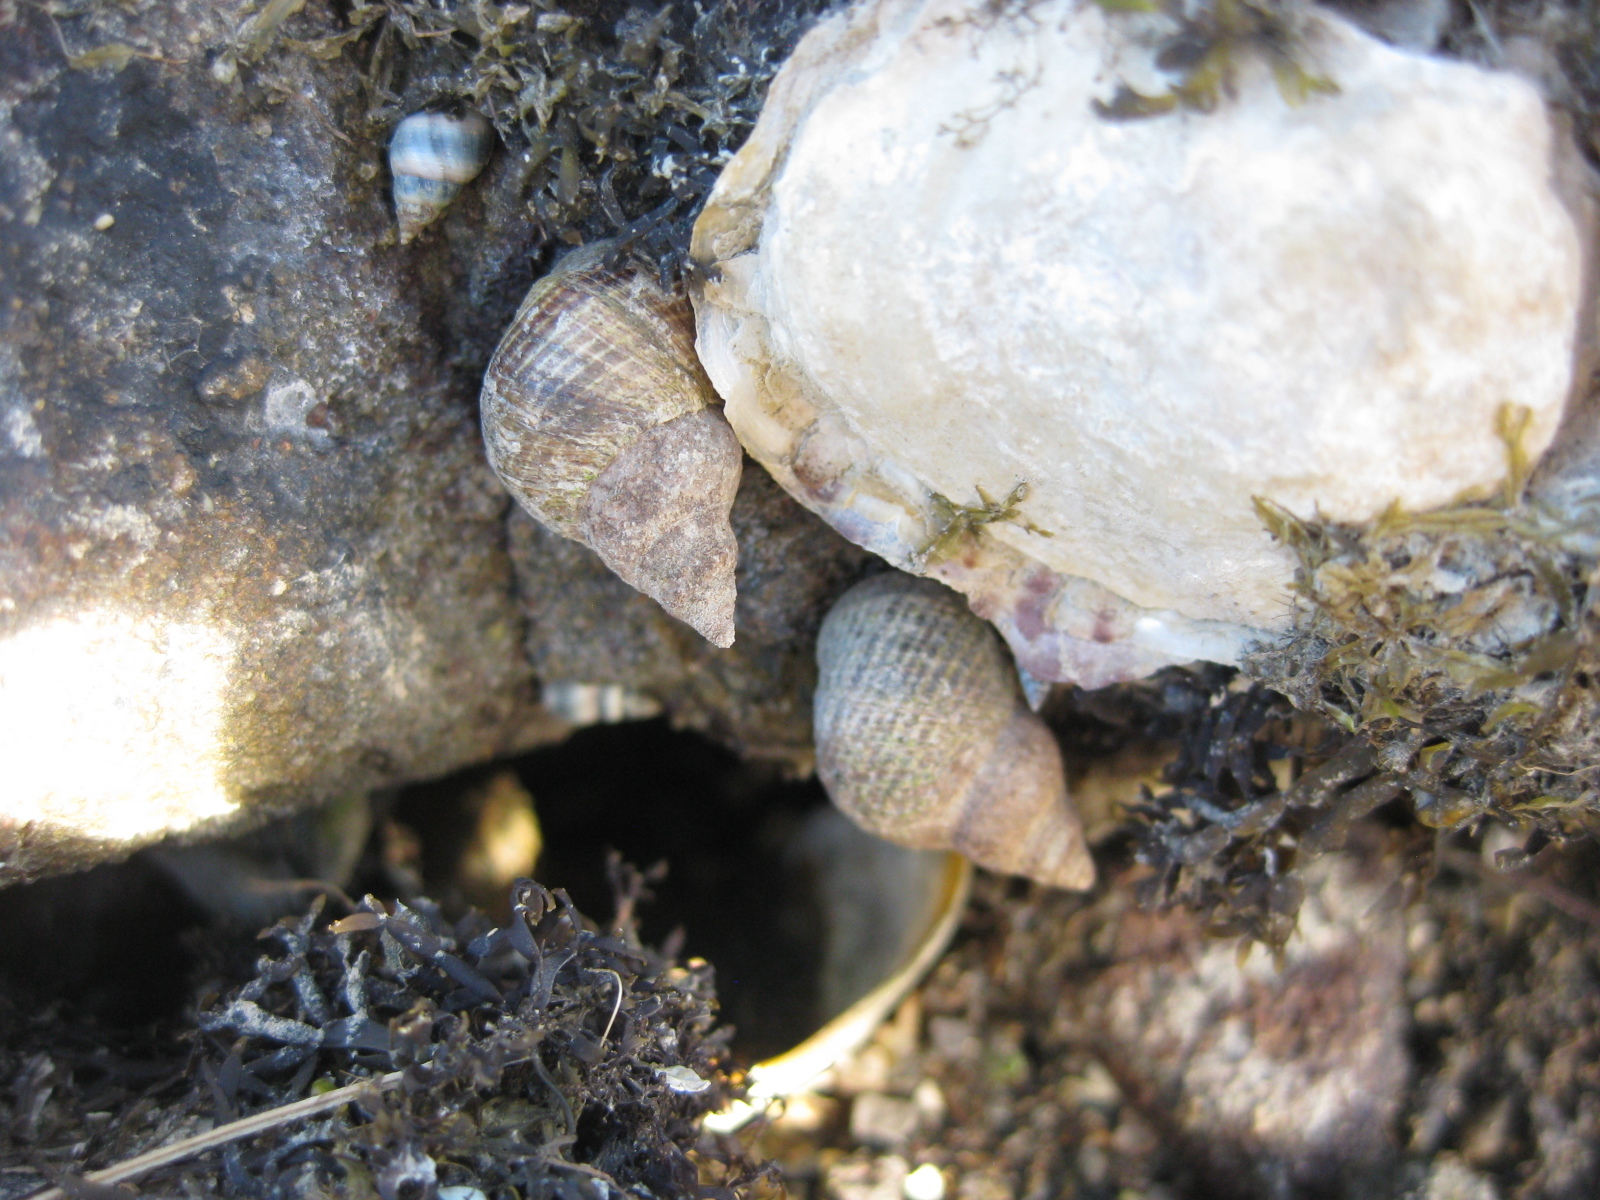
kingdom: Animalia
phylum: Mollusca
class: Gastropoda
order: Littorinimorpha
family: Littorinidae
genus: Austrolittorina
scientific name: Austrolittorina cincta
